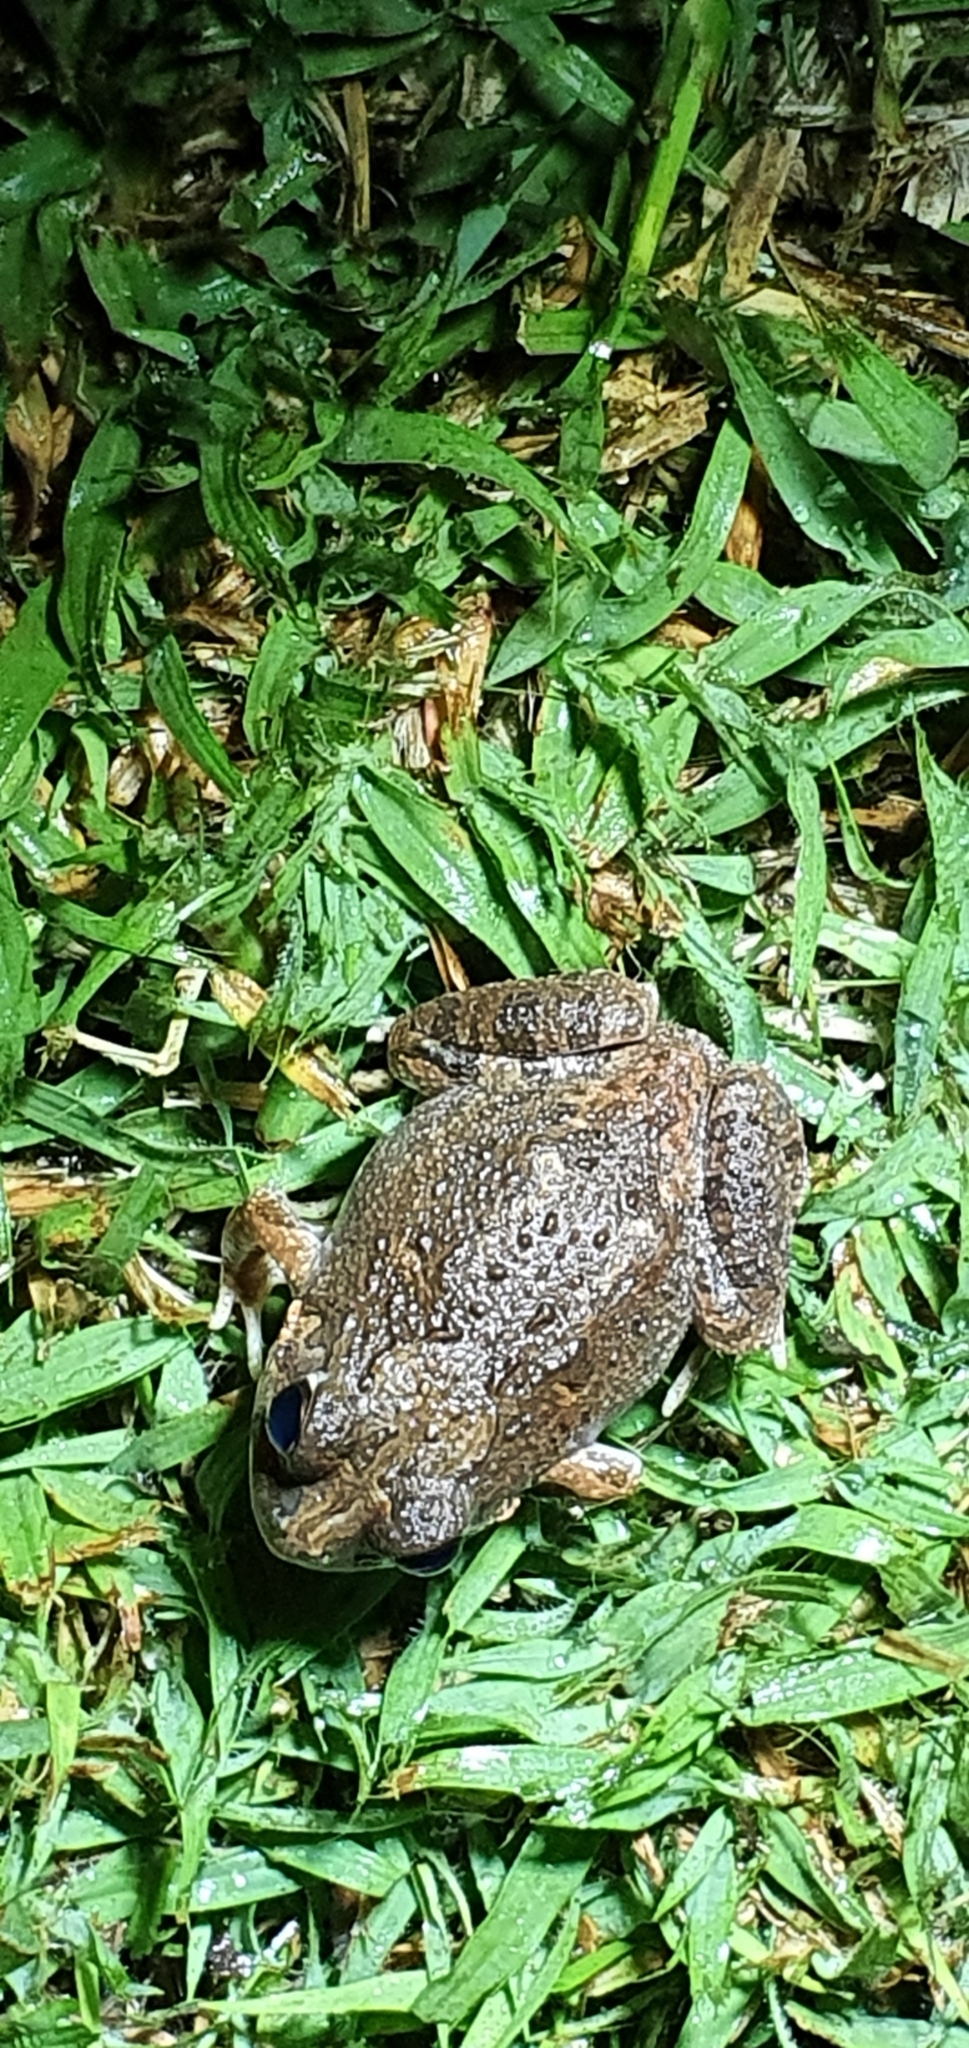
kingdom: Animalia
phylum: Chordata
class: Amphibia
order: Anura
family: Limnodynastidae
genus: Platyplectrum
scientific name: Platyplectrum ornatum
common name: Ornate burrowing frog
